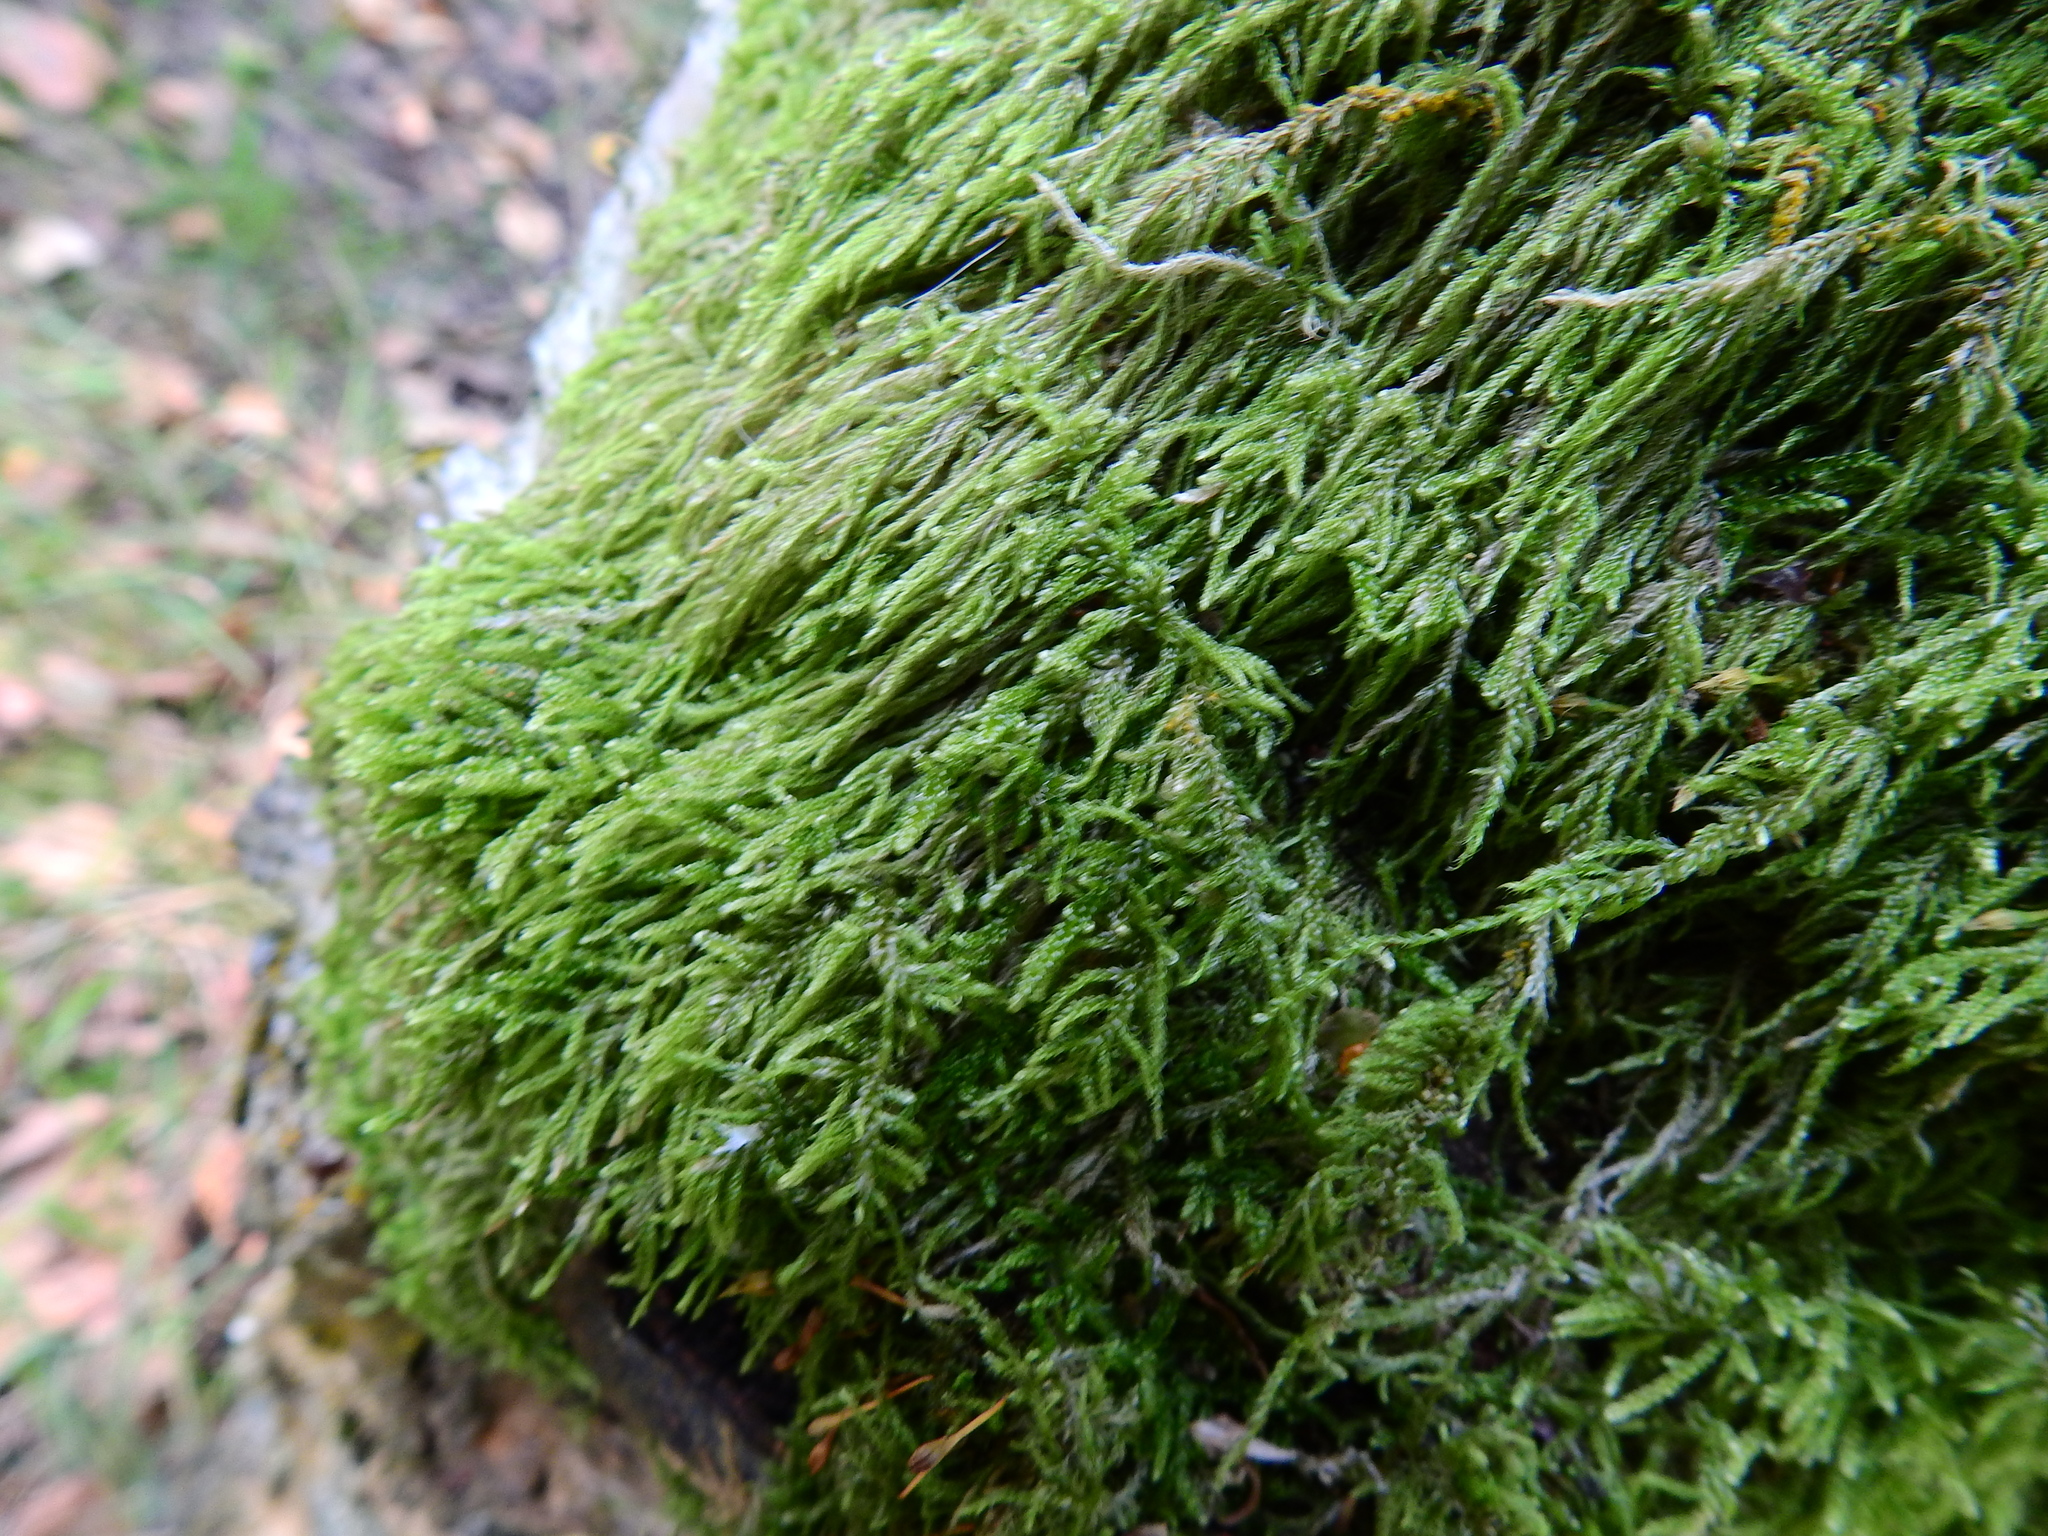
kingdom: Plantae
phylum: Bryophyta
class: Bryopsida
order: Hypnales
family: Hypnaceae
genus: Hypnum
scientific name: Hypnum cupressiforme
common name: Cypress-leaved plait-moss
